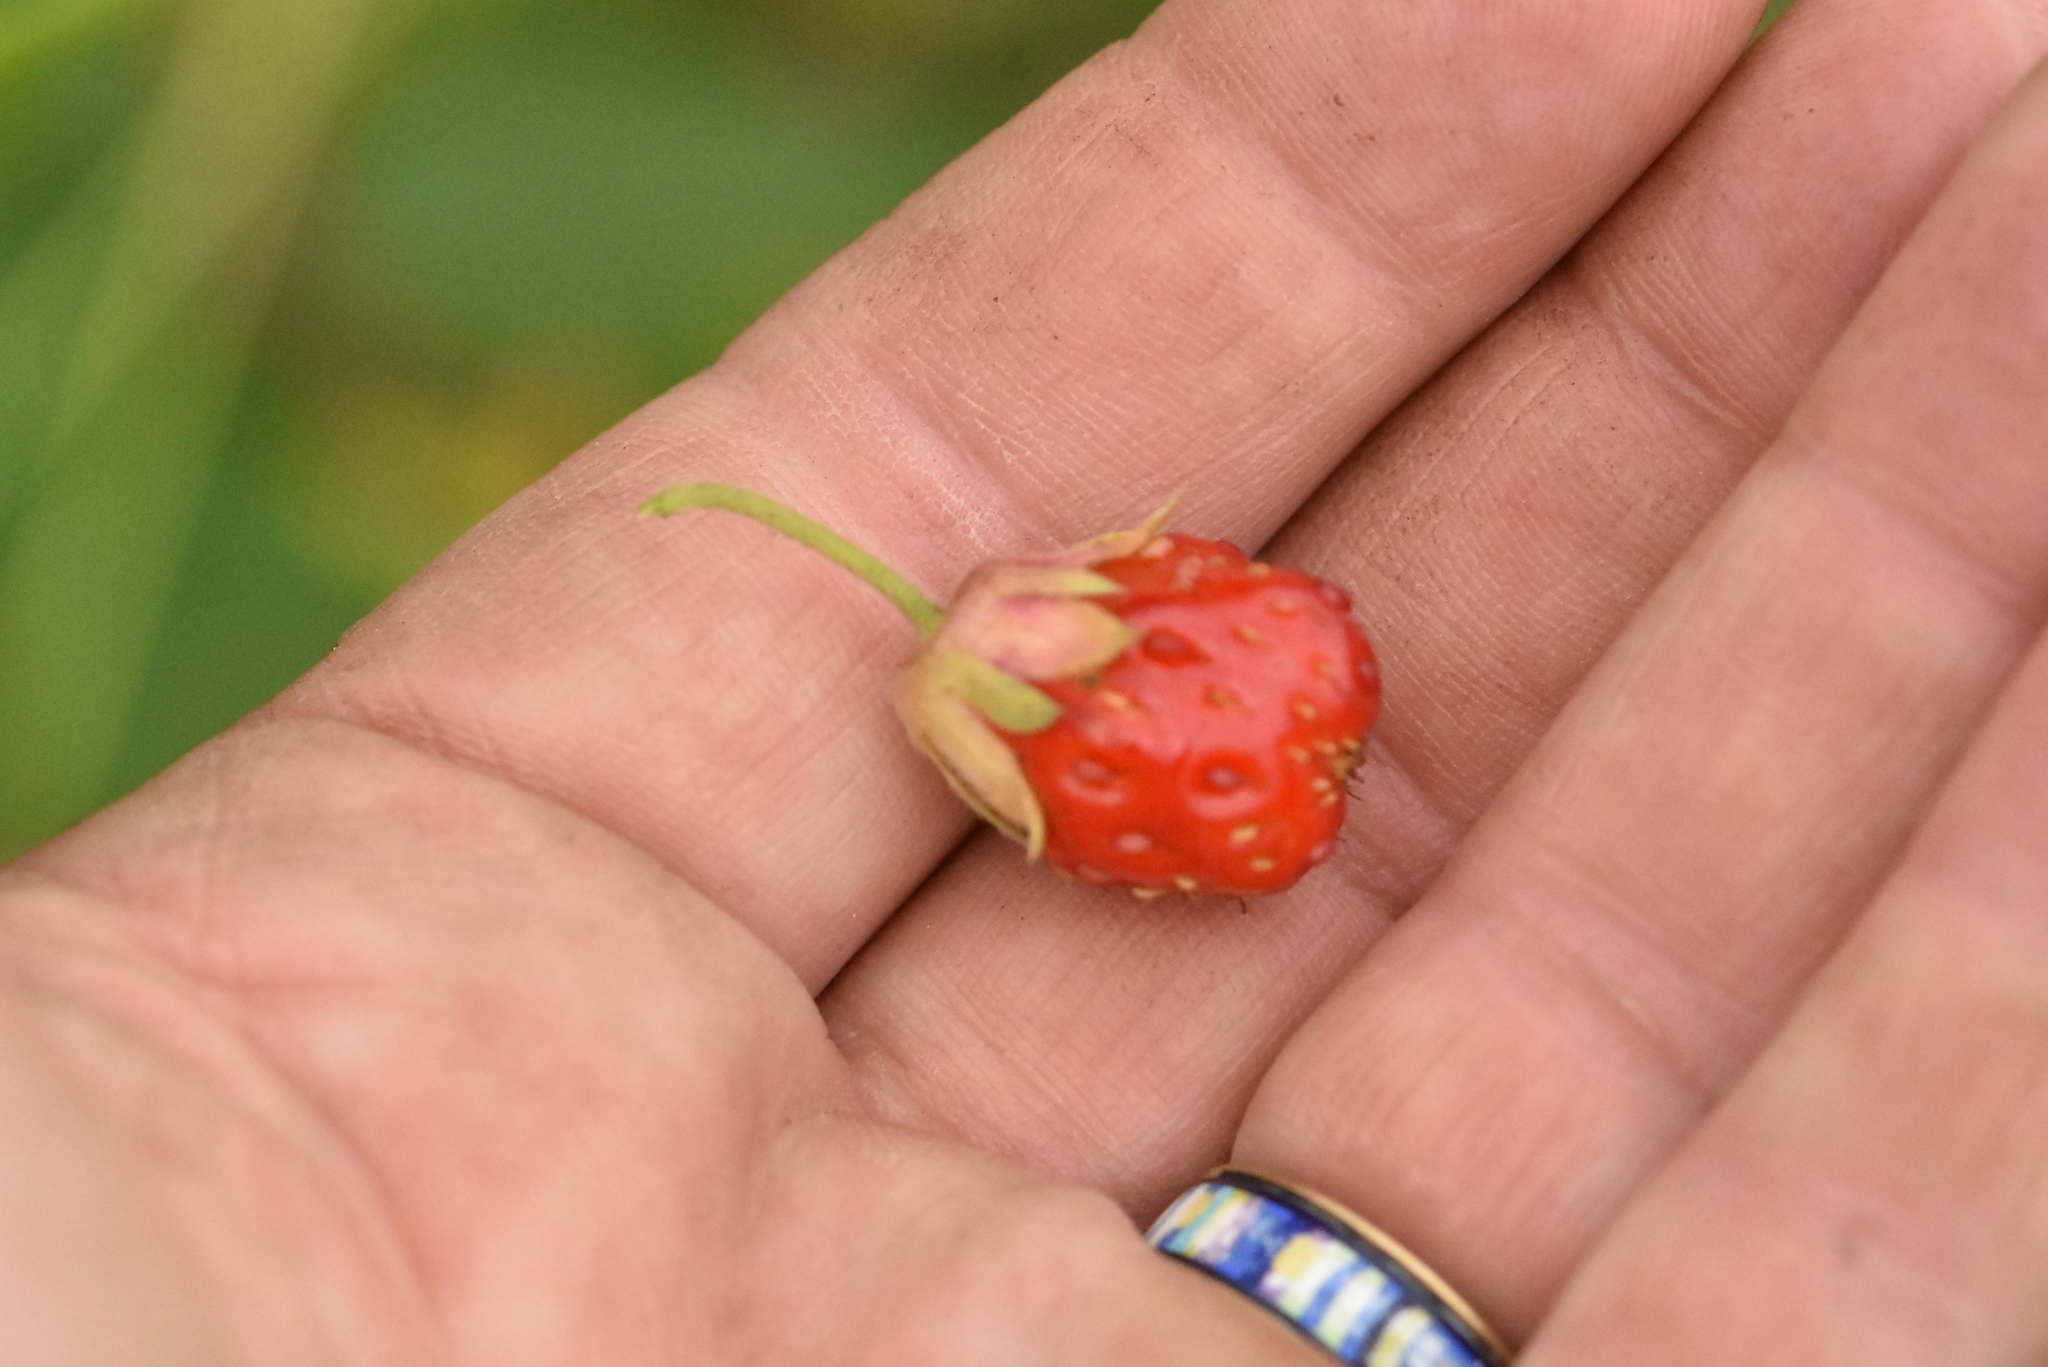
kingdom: Plantae
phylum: Tracheophyta
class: Magnoliopsida
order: Rosales
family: Rosaceae
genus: Fragaria
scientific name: Fragaria viridis
